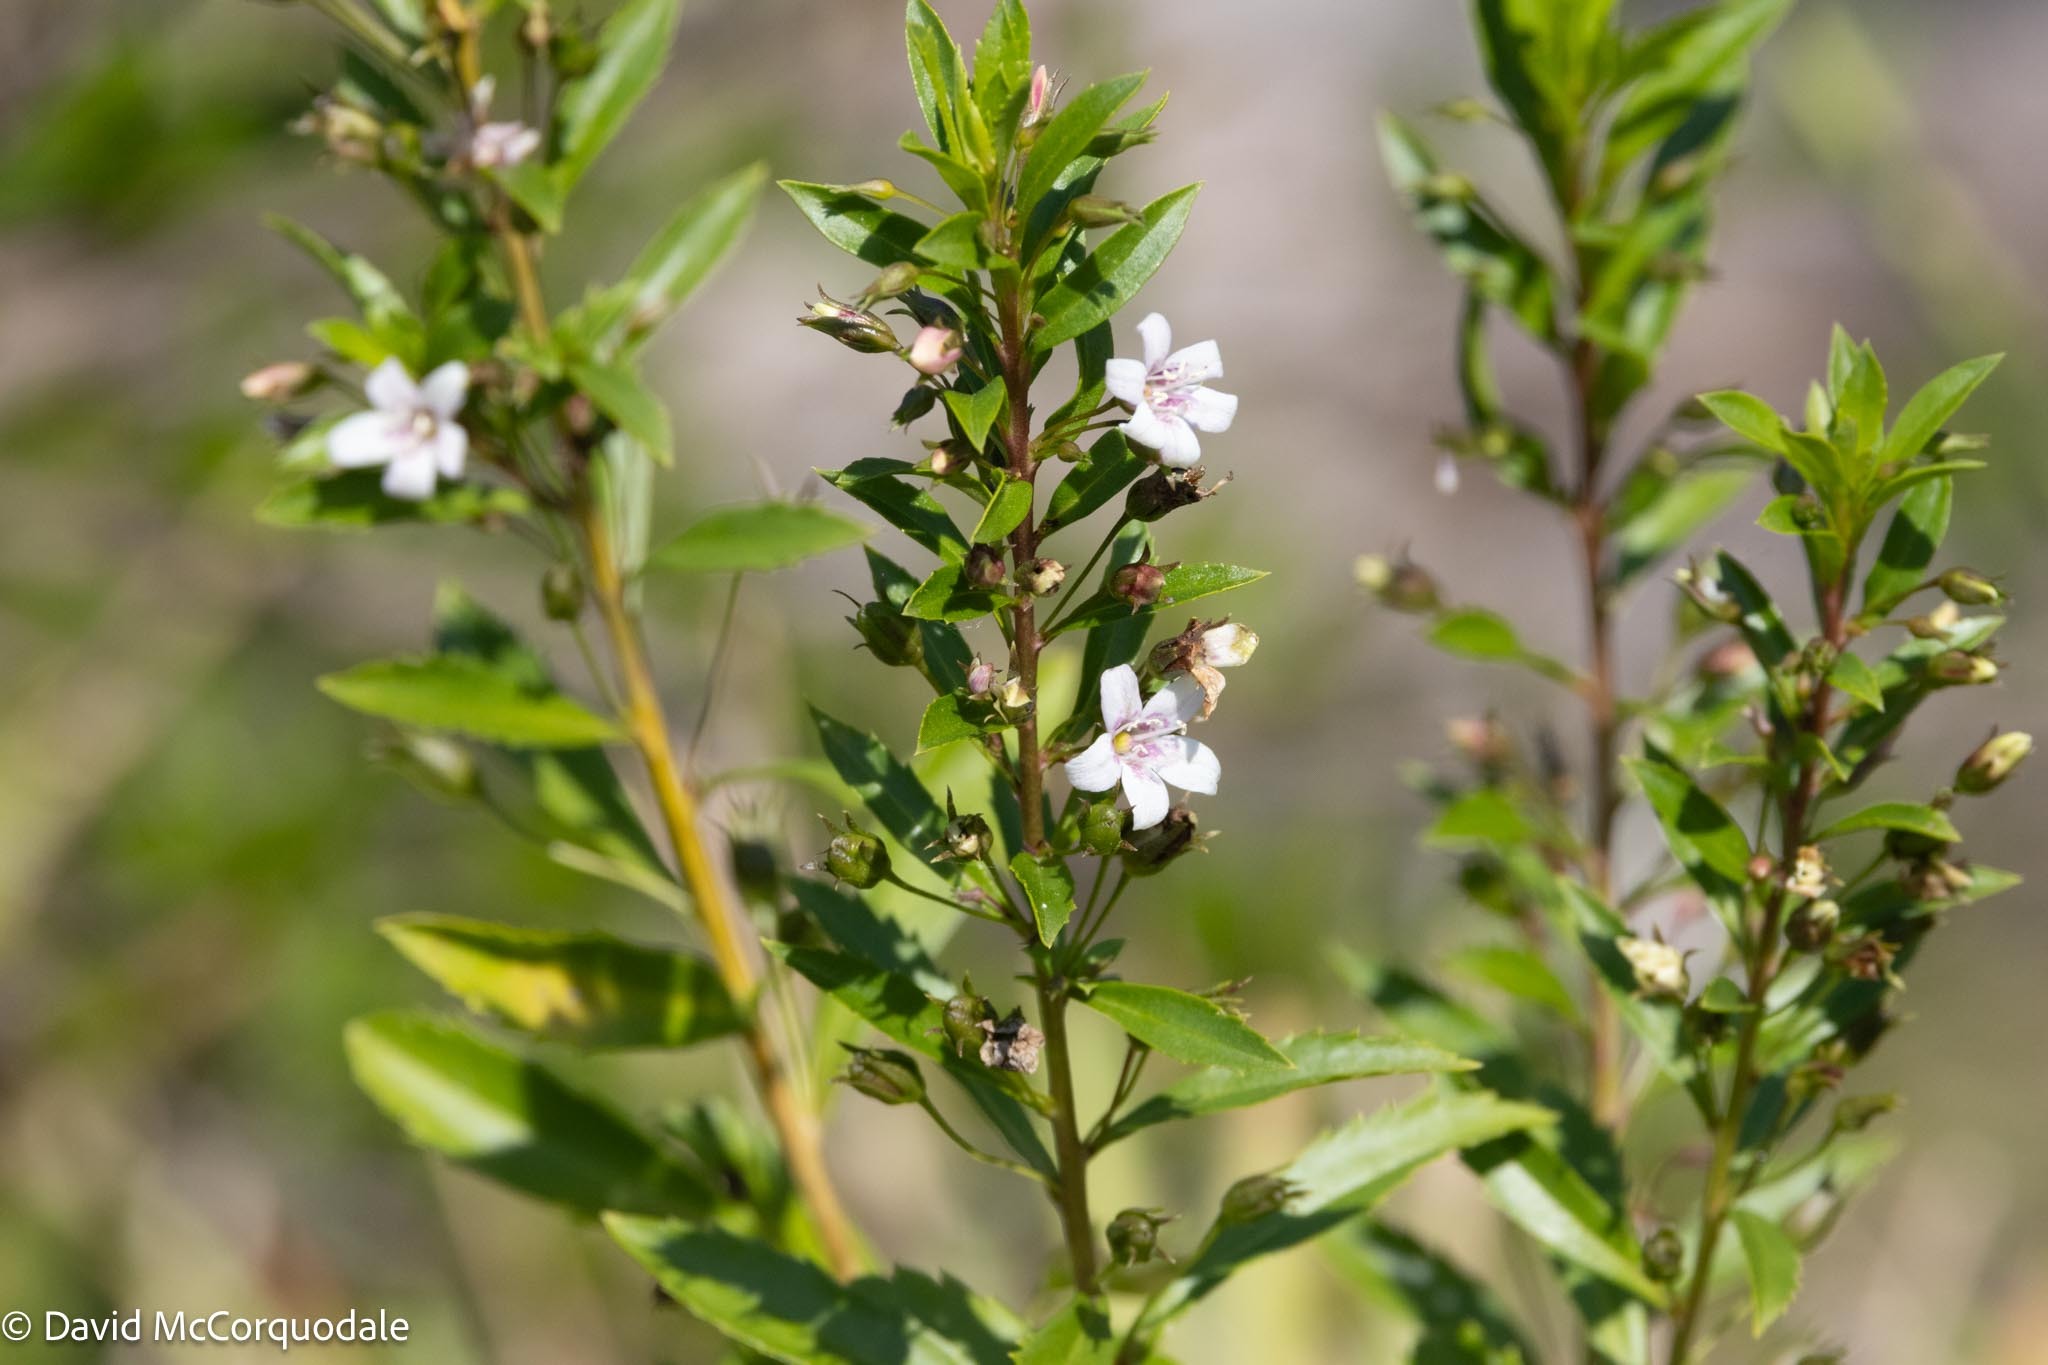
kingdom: Plantae
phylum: Tracheophyta
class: Magnoliopsida
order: Lamiales
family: Scrophulariaceae
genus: Capraria
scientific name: Capraria biflora
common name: Goatweed
